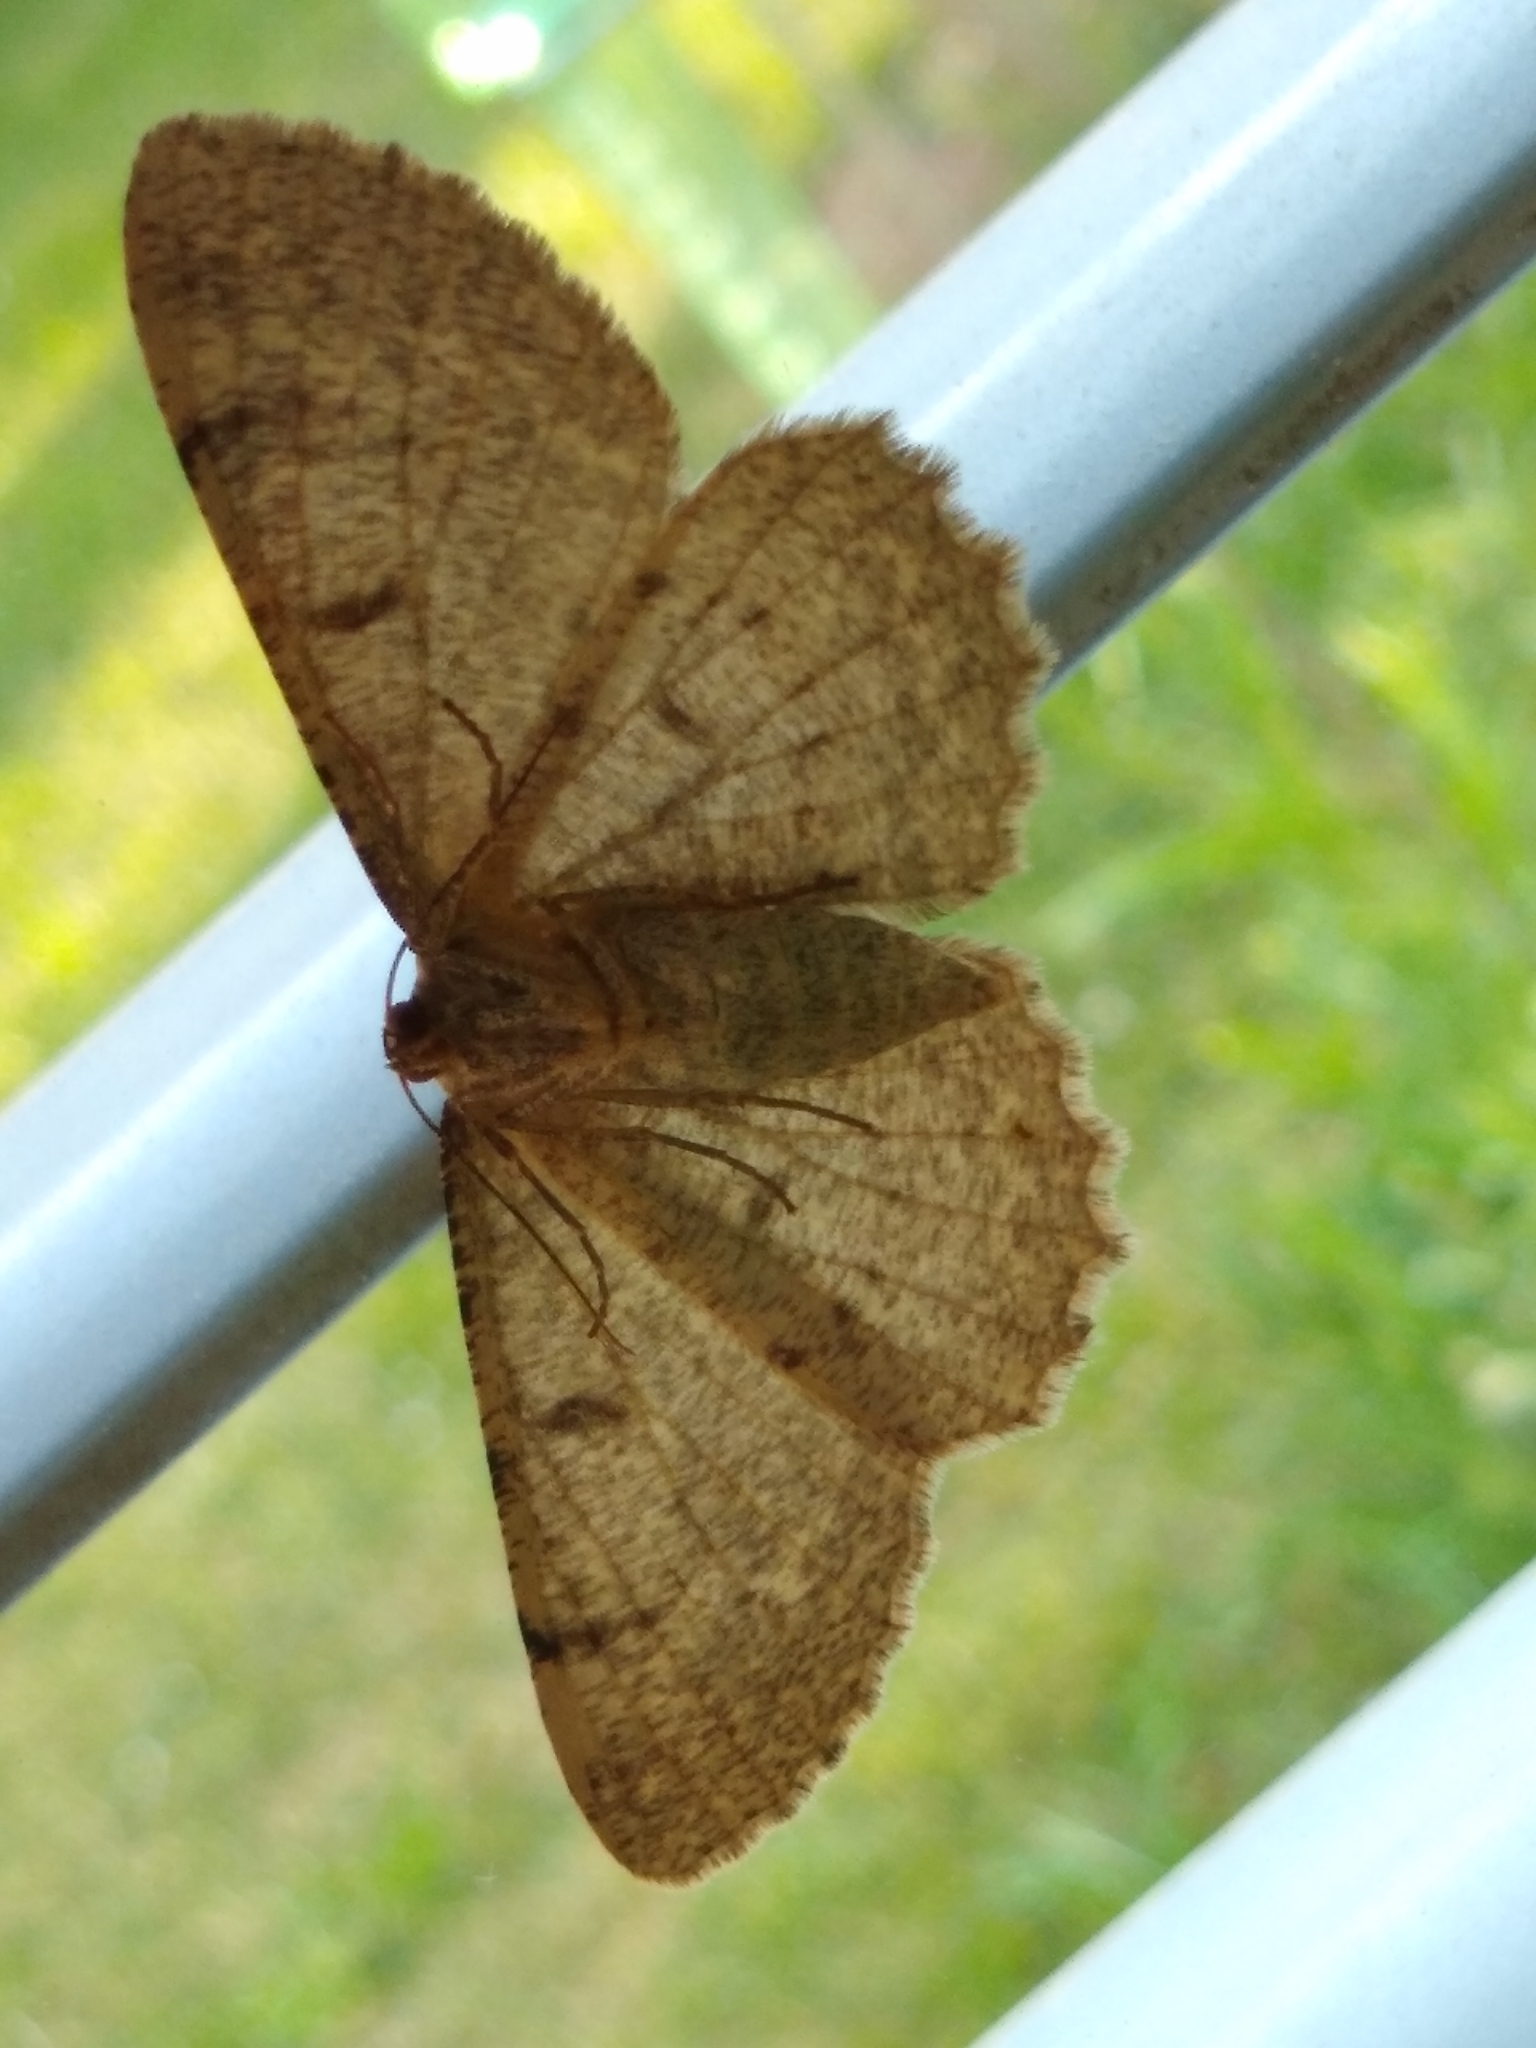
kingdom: Animalia
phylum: Arthropoda
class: Insecta
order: Lepidoptera
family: Geometridae
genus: Hypomecis
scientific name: Hypomecis punctinalis
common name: Pale oak beauty
